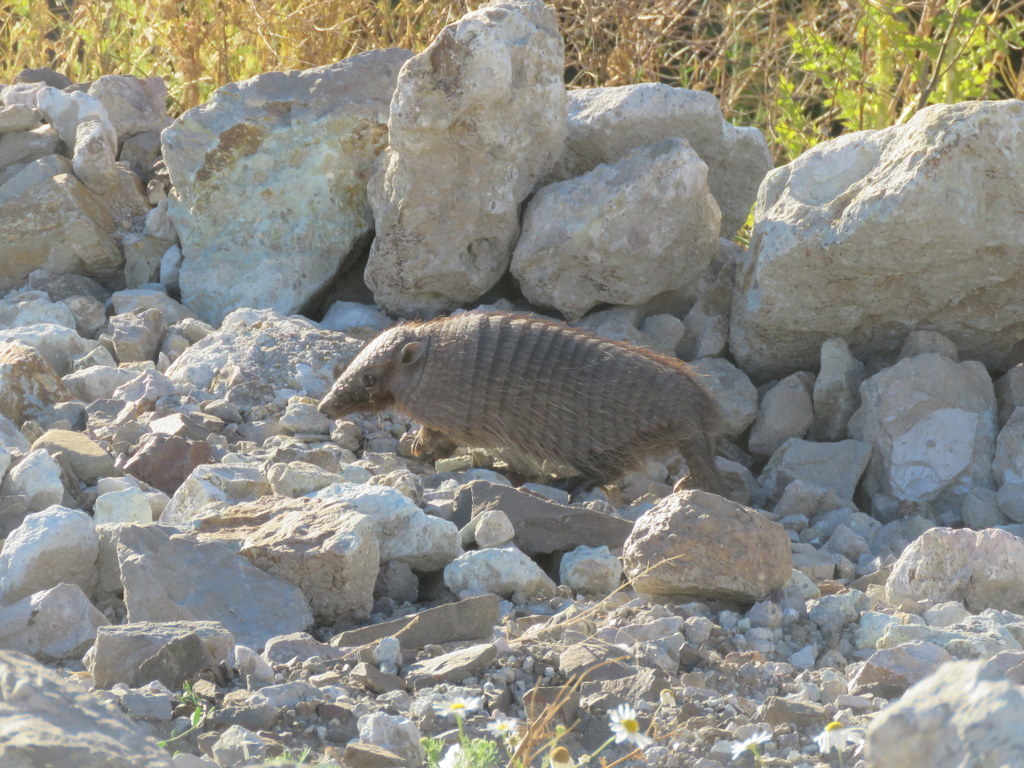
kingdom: Animalia
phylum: Chordata
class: Mammalia
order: Cingulata
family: Dasypodidae
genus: Chaetophractus
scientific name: Chaetophractus villosus
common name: Big hairy armadillo
